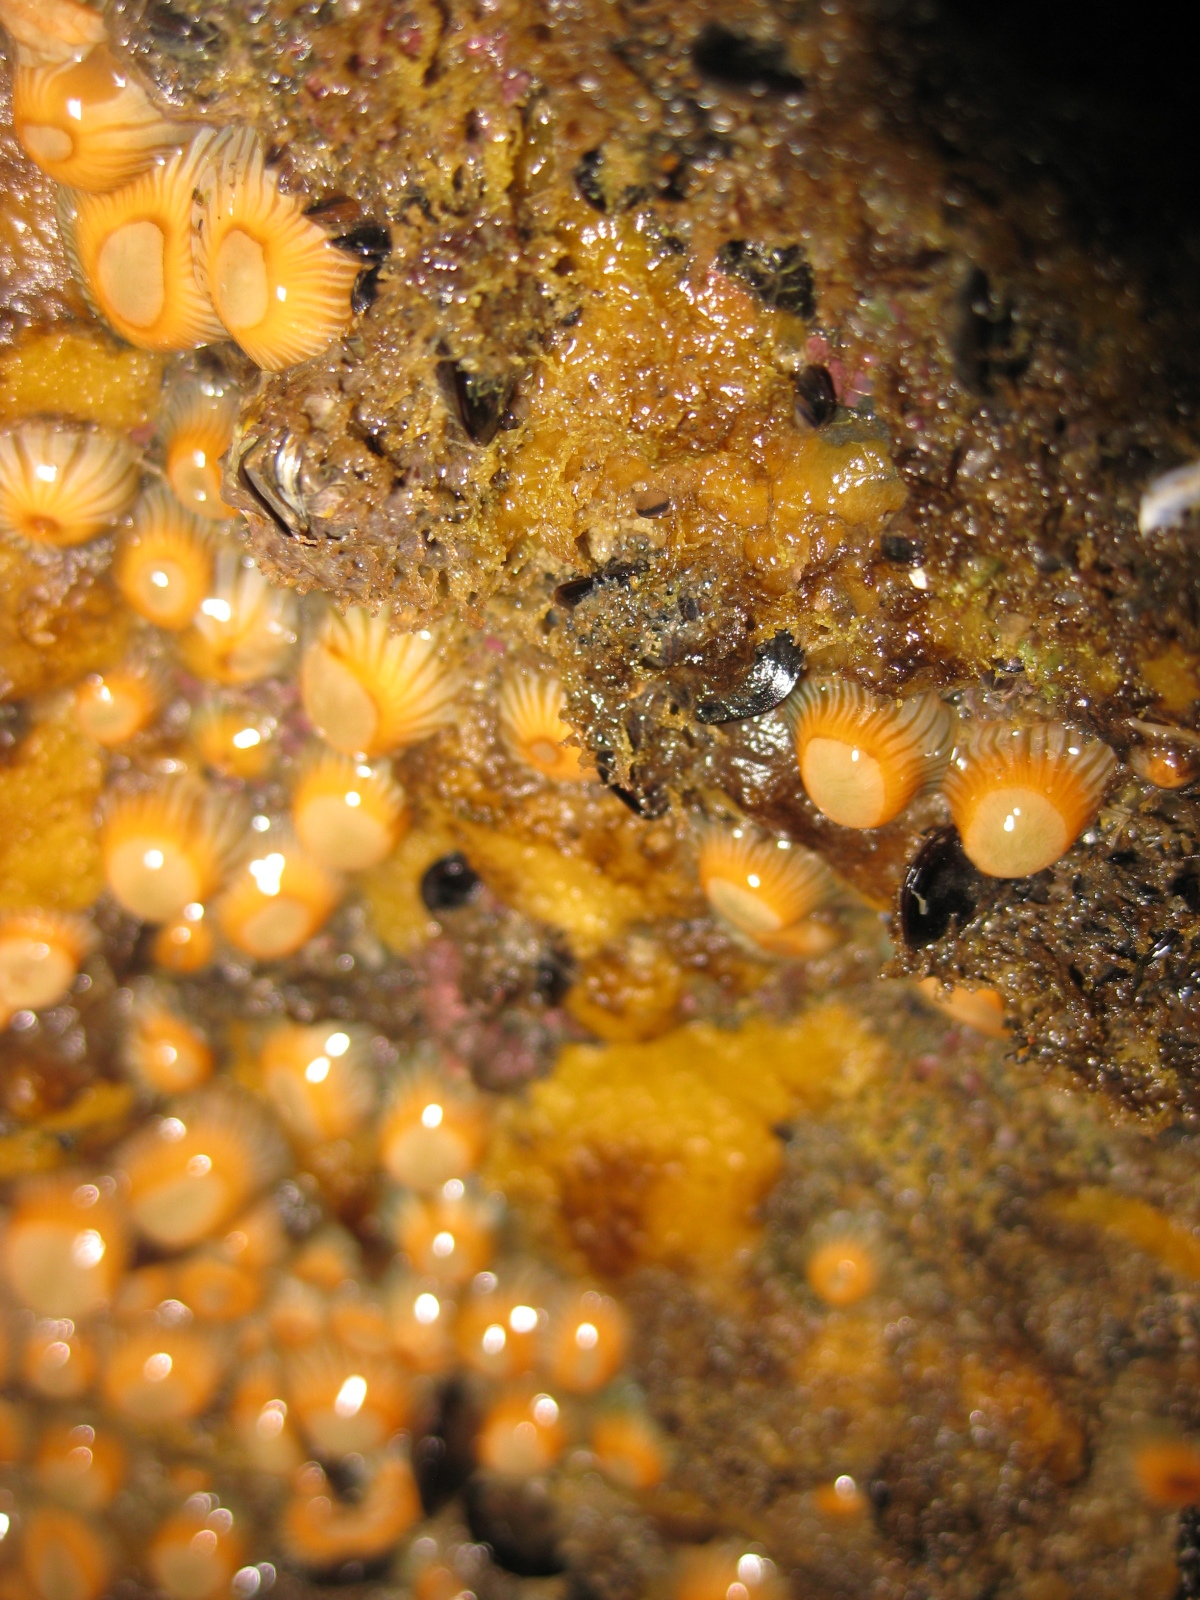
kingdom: Animalia
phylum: Cnidaria
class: Anthozoa
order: Actiniaria
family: Sagartiidae
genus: Anthothoe
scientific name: Anthothoe albocincta
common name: Orange striped anemone
